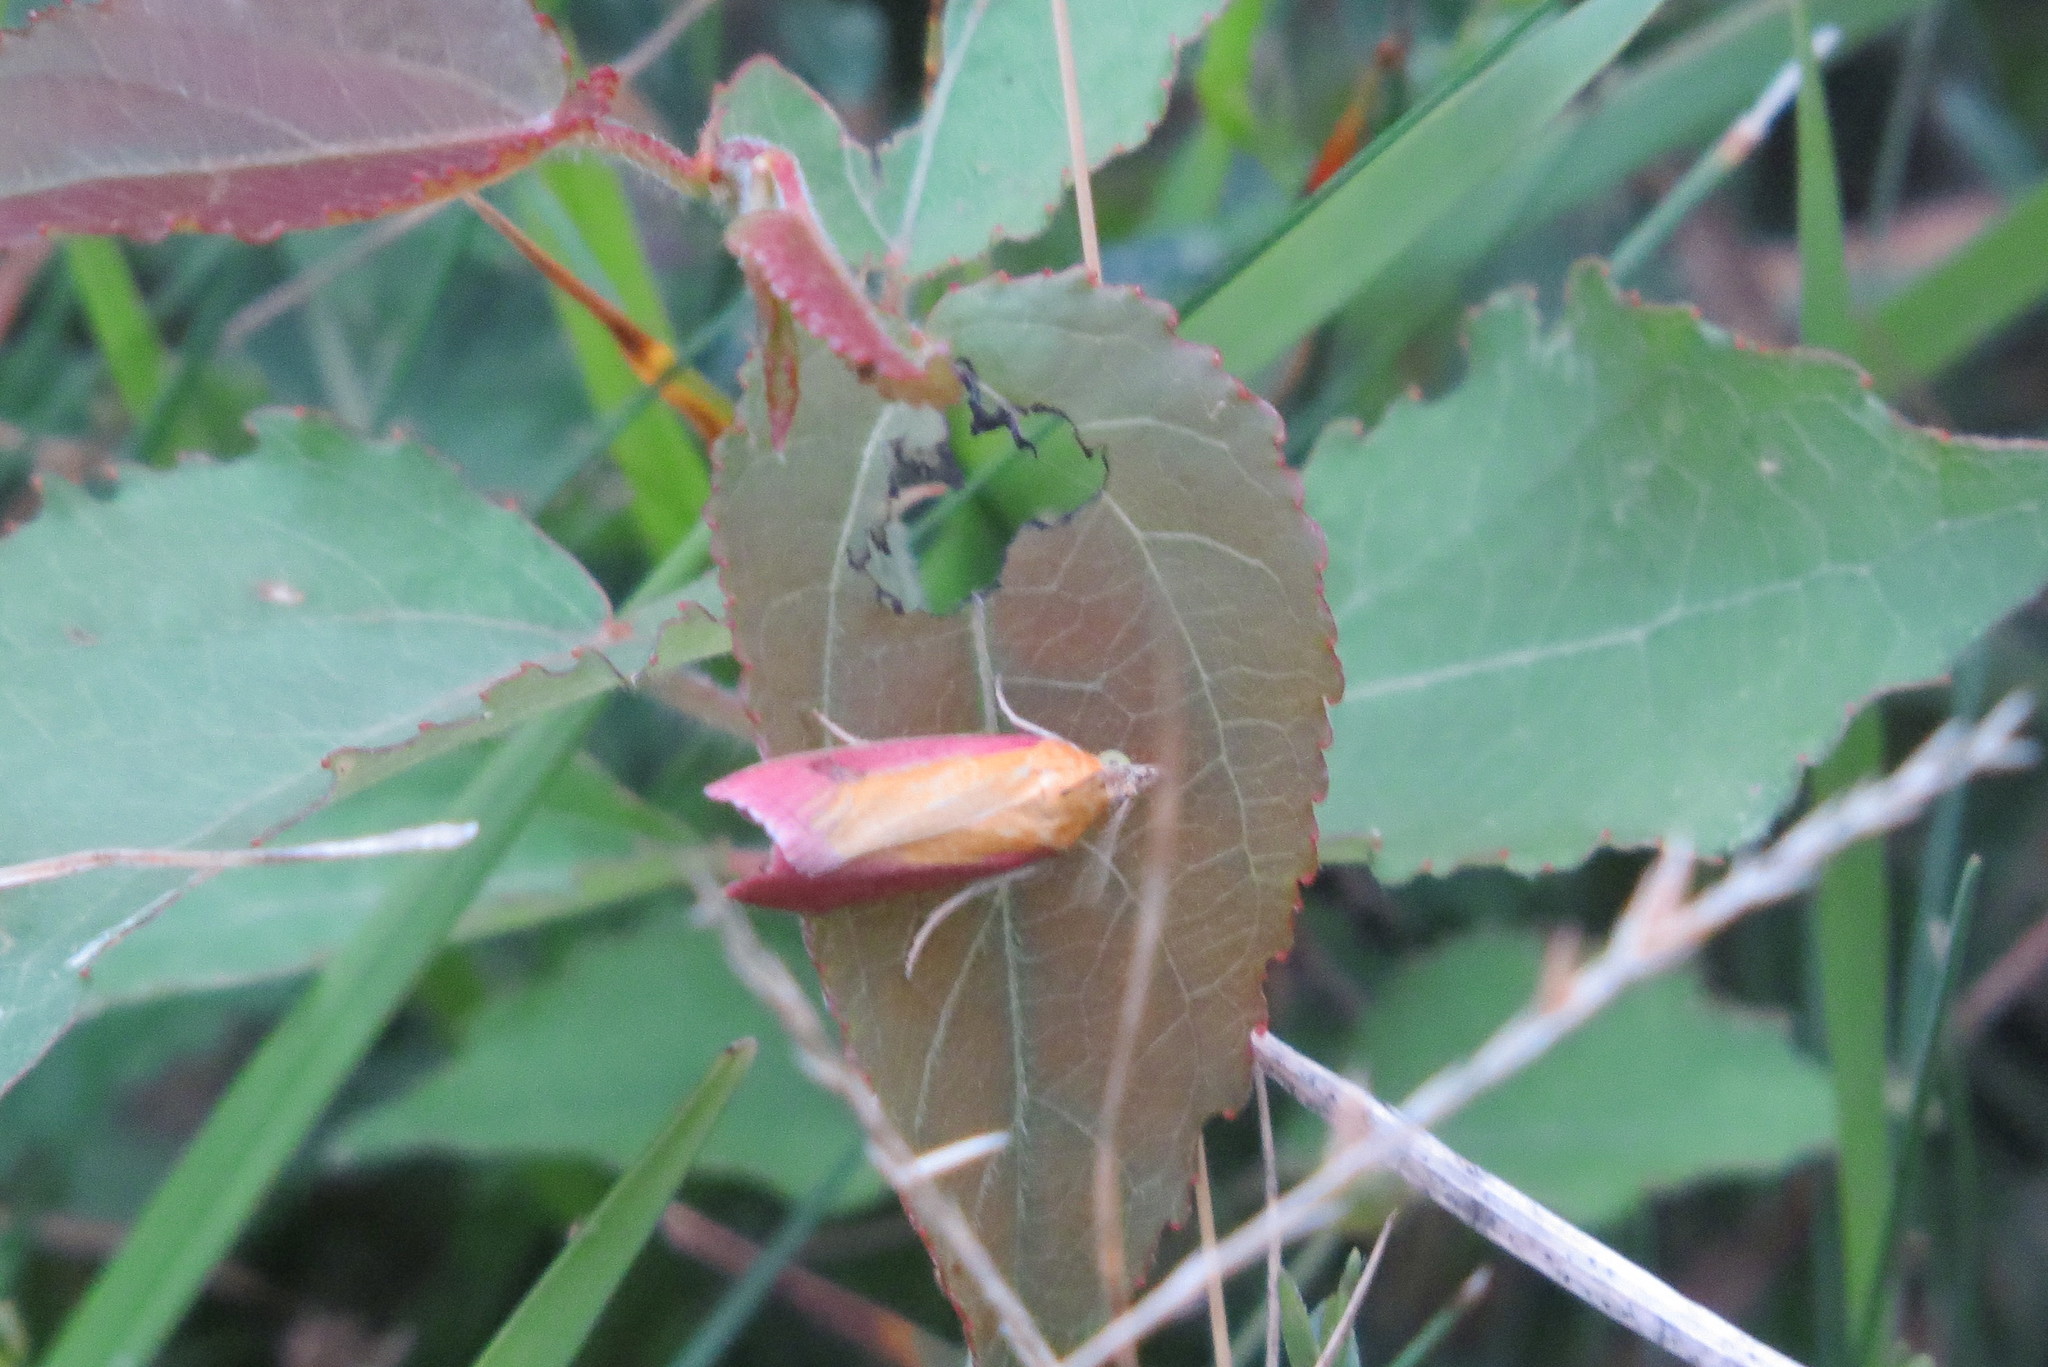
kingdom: Animalia
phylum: Arthropoda
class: Insecta
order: Lepidoptera
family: Pyralidae
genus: Oncocera
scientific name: Oncocera semirubella
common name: Rosy-striped knot-horn
